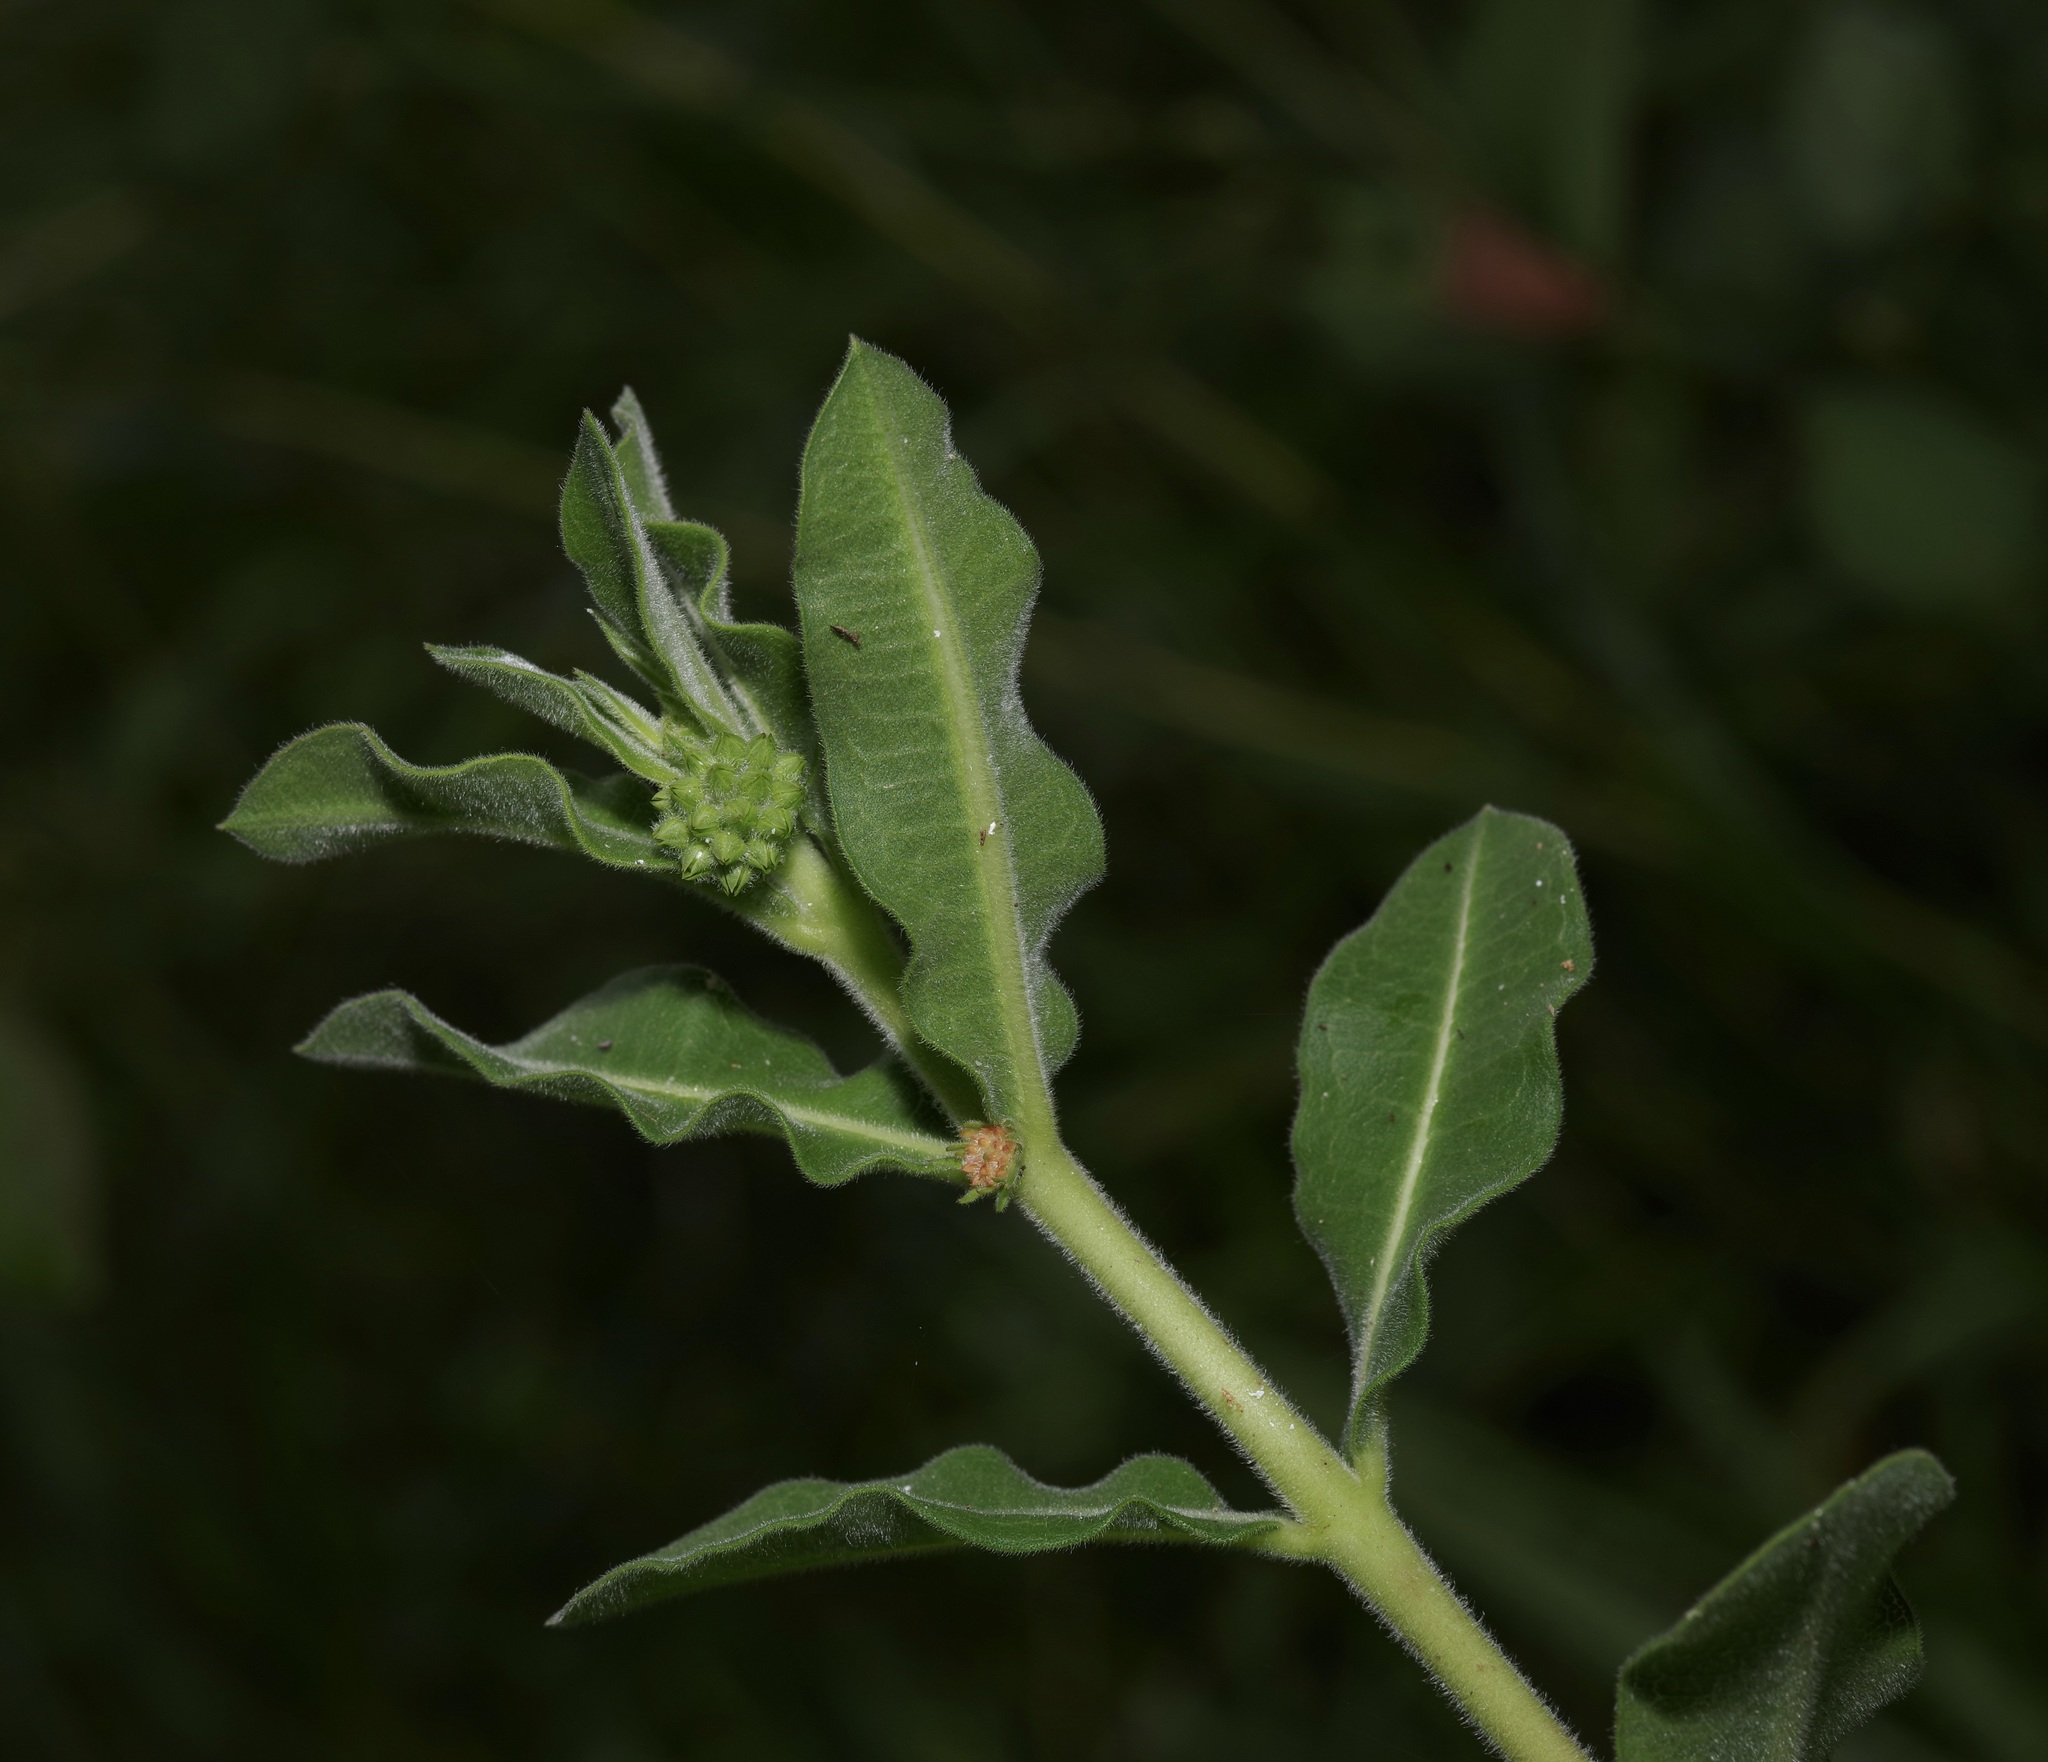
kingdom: Plantae
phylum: Tracheophyta
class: Magnoliopsida
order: Gentianales
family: Apocynaceae
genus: Asclepias
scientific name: Asclepias obovata
